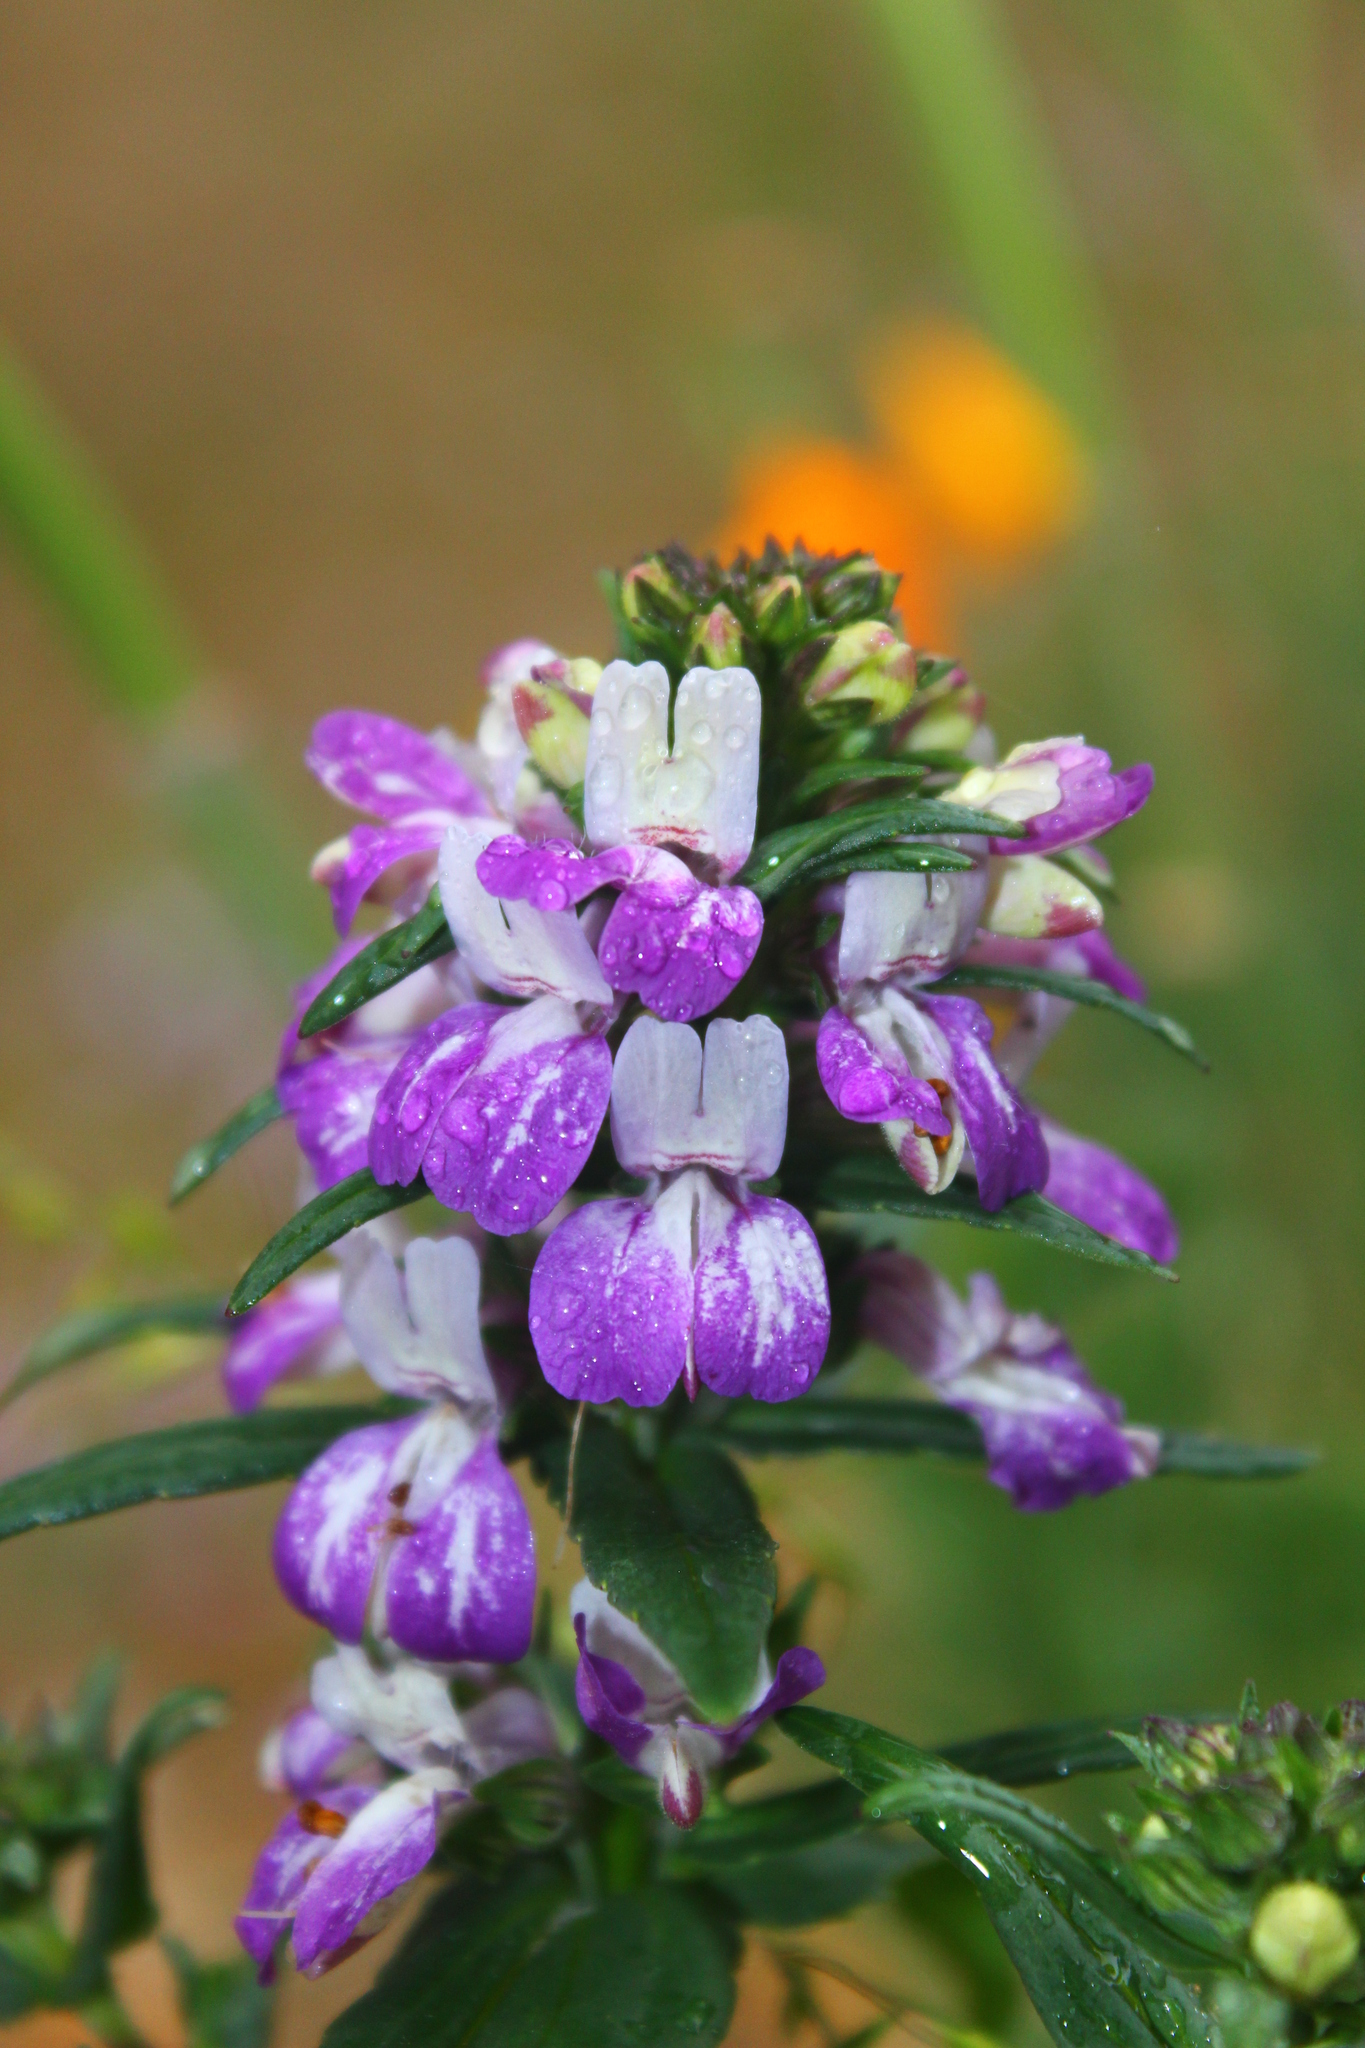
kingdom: Plantae
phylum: Tracheophyta
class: Magnoliopsida
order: Lamiales
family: Plantaginaceae
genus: Collinsia
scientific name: Collinsia heterophylla
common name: Chinese-houses
